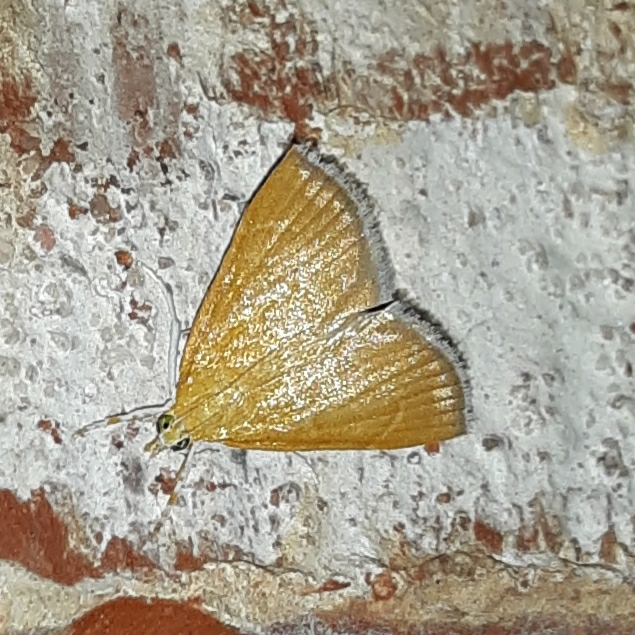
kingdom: Animalia
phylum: Arthropoda
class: Insecta
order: Lepidoptera
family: Crambidae
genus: Glaphyria
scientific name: Glaphyria invisalis
